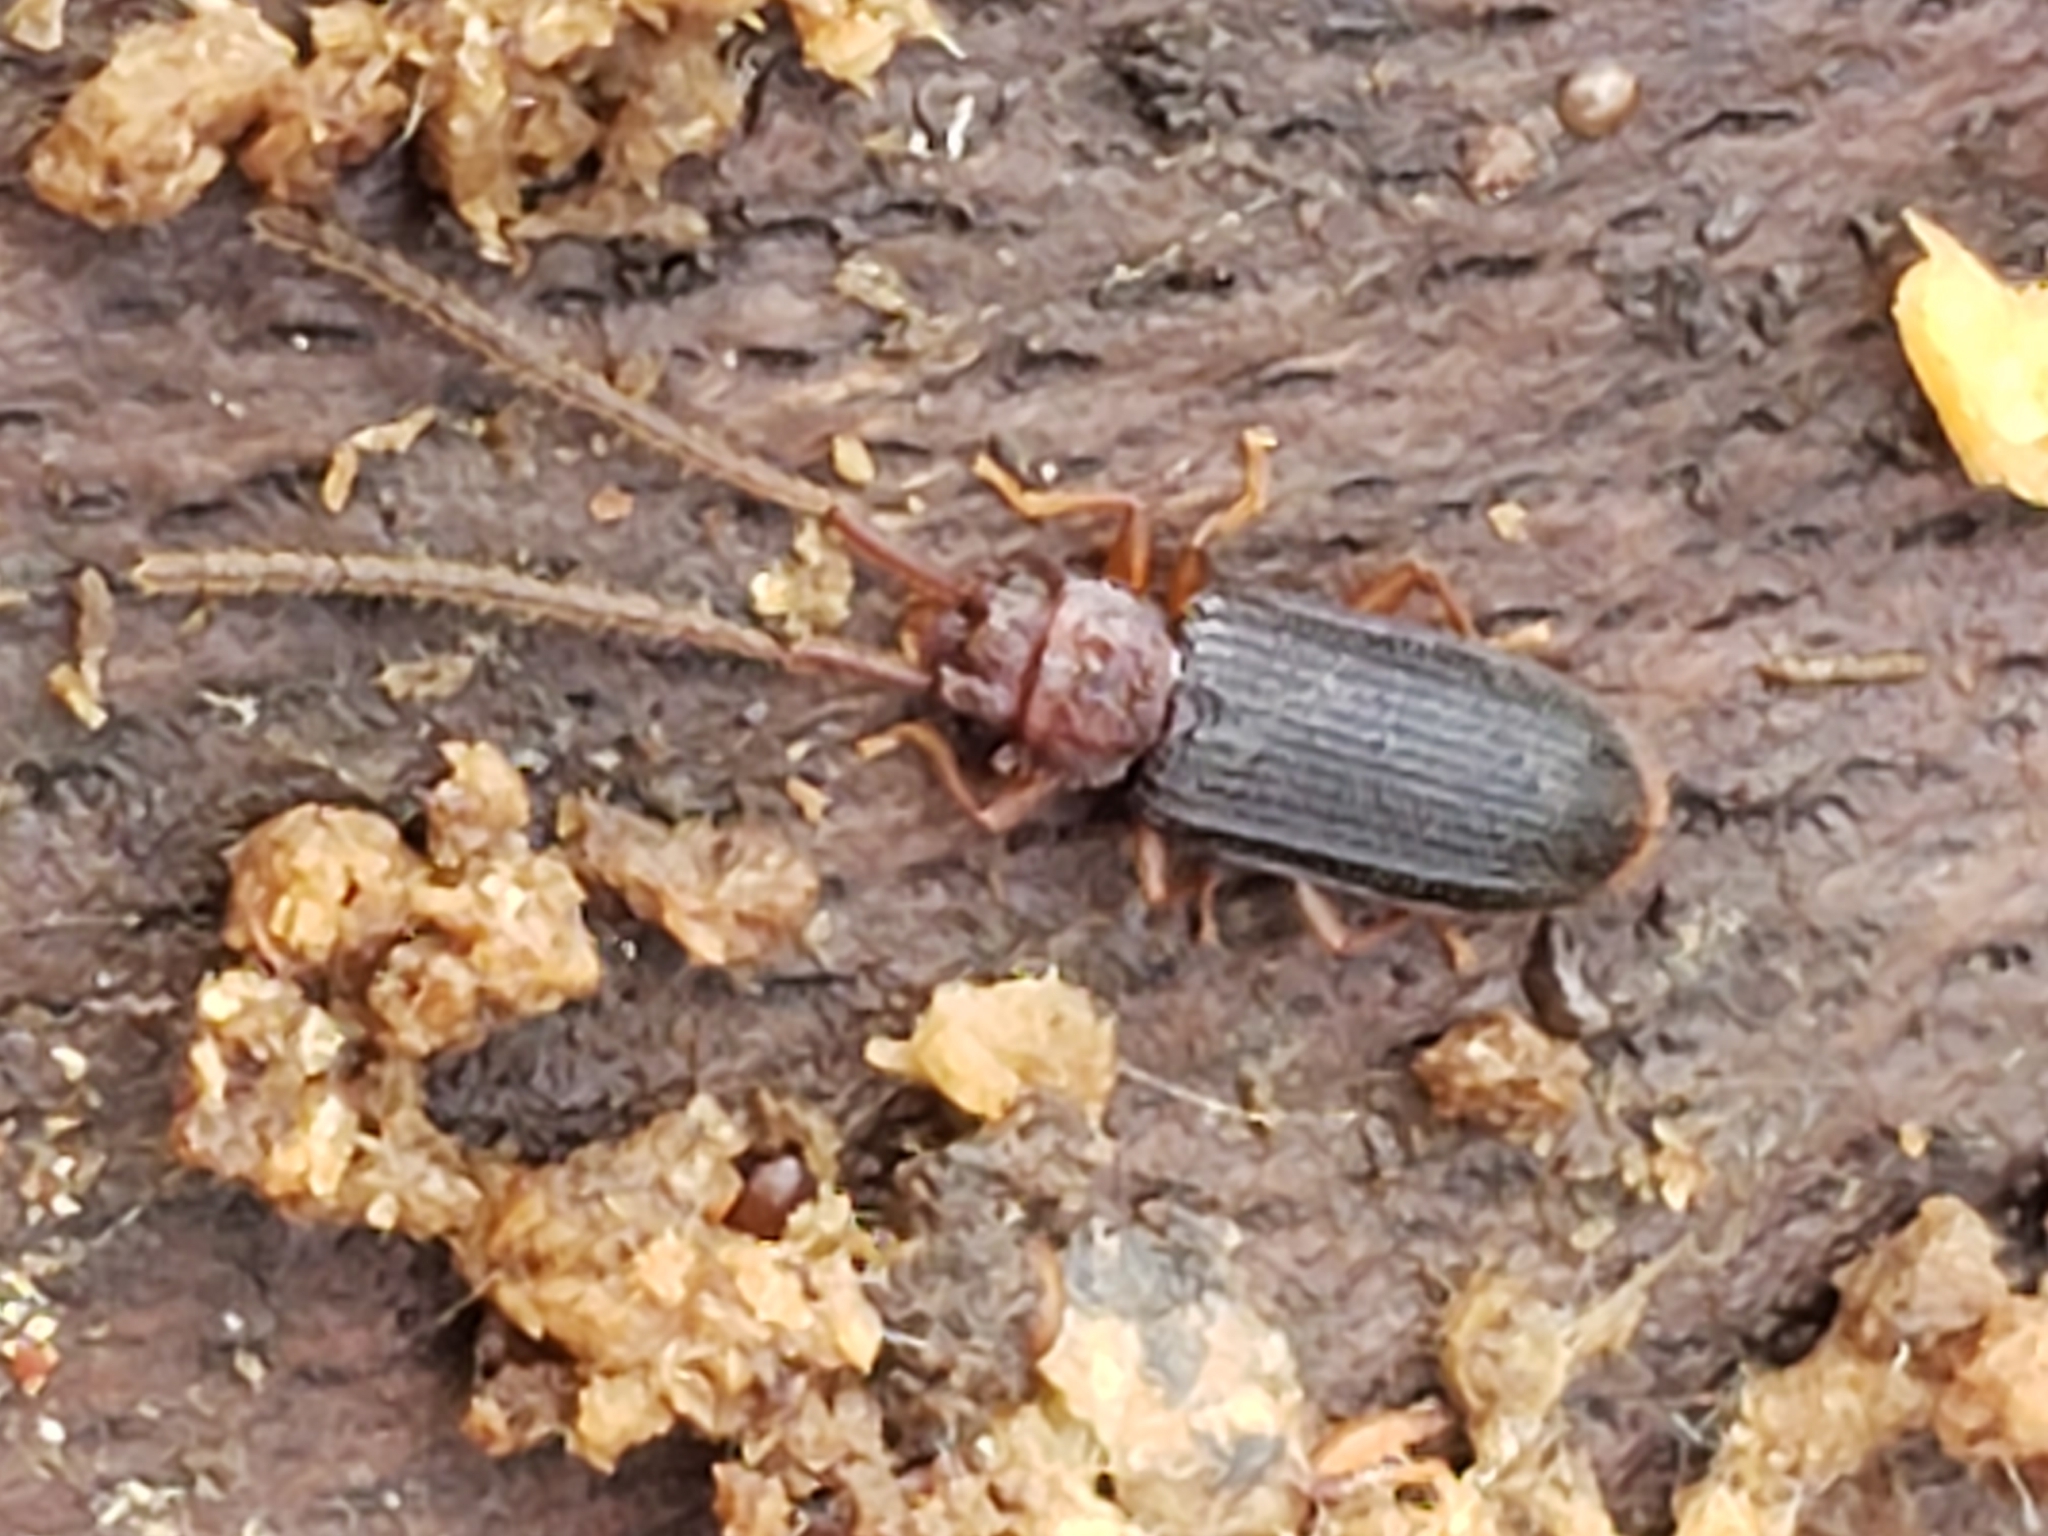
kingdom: Animalia
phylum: Arthropoda
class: Insecta
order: Coleoptera
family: Silvanidae
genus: Uleiota
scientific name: Uleiota dubia
